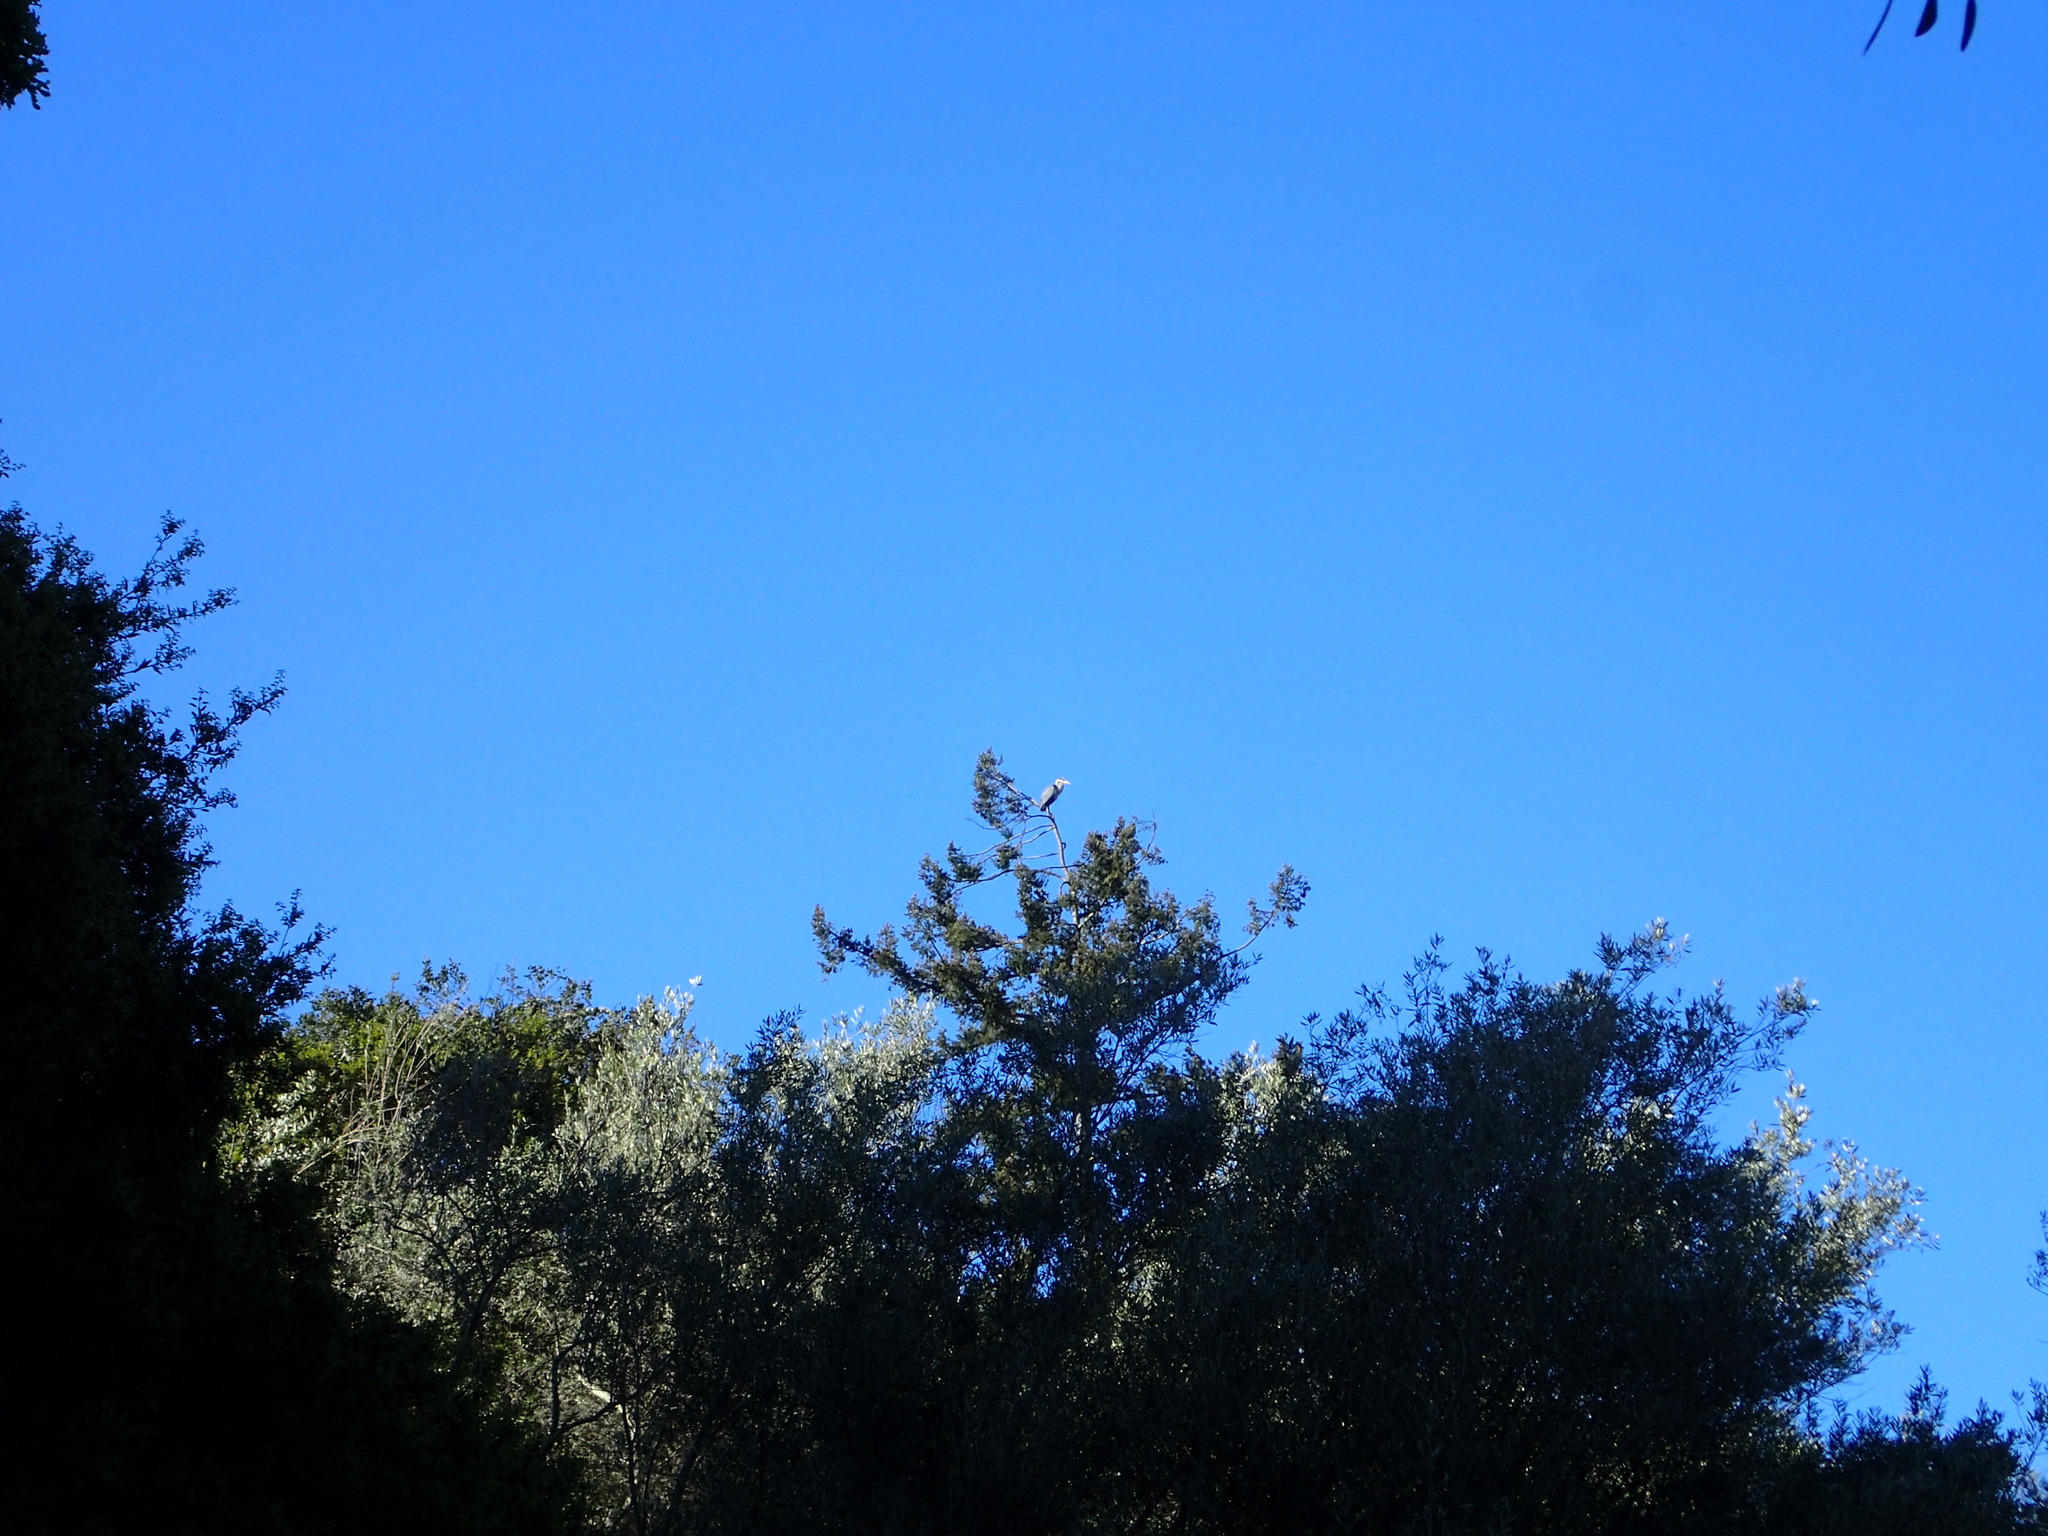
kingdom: Animalia
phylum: Chordata
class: Aves
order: Pelecaniformes
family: Ardeidae
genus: Ardea
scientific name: Ardea herodias
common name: Great blue heron
